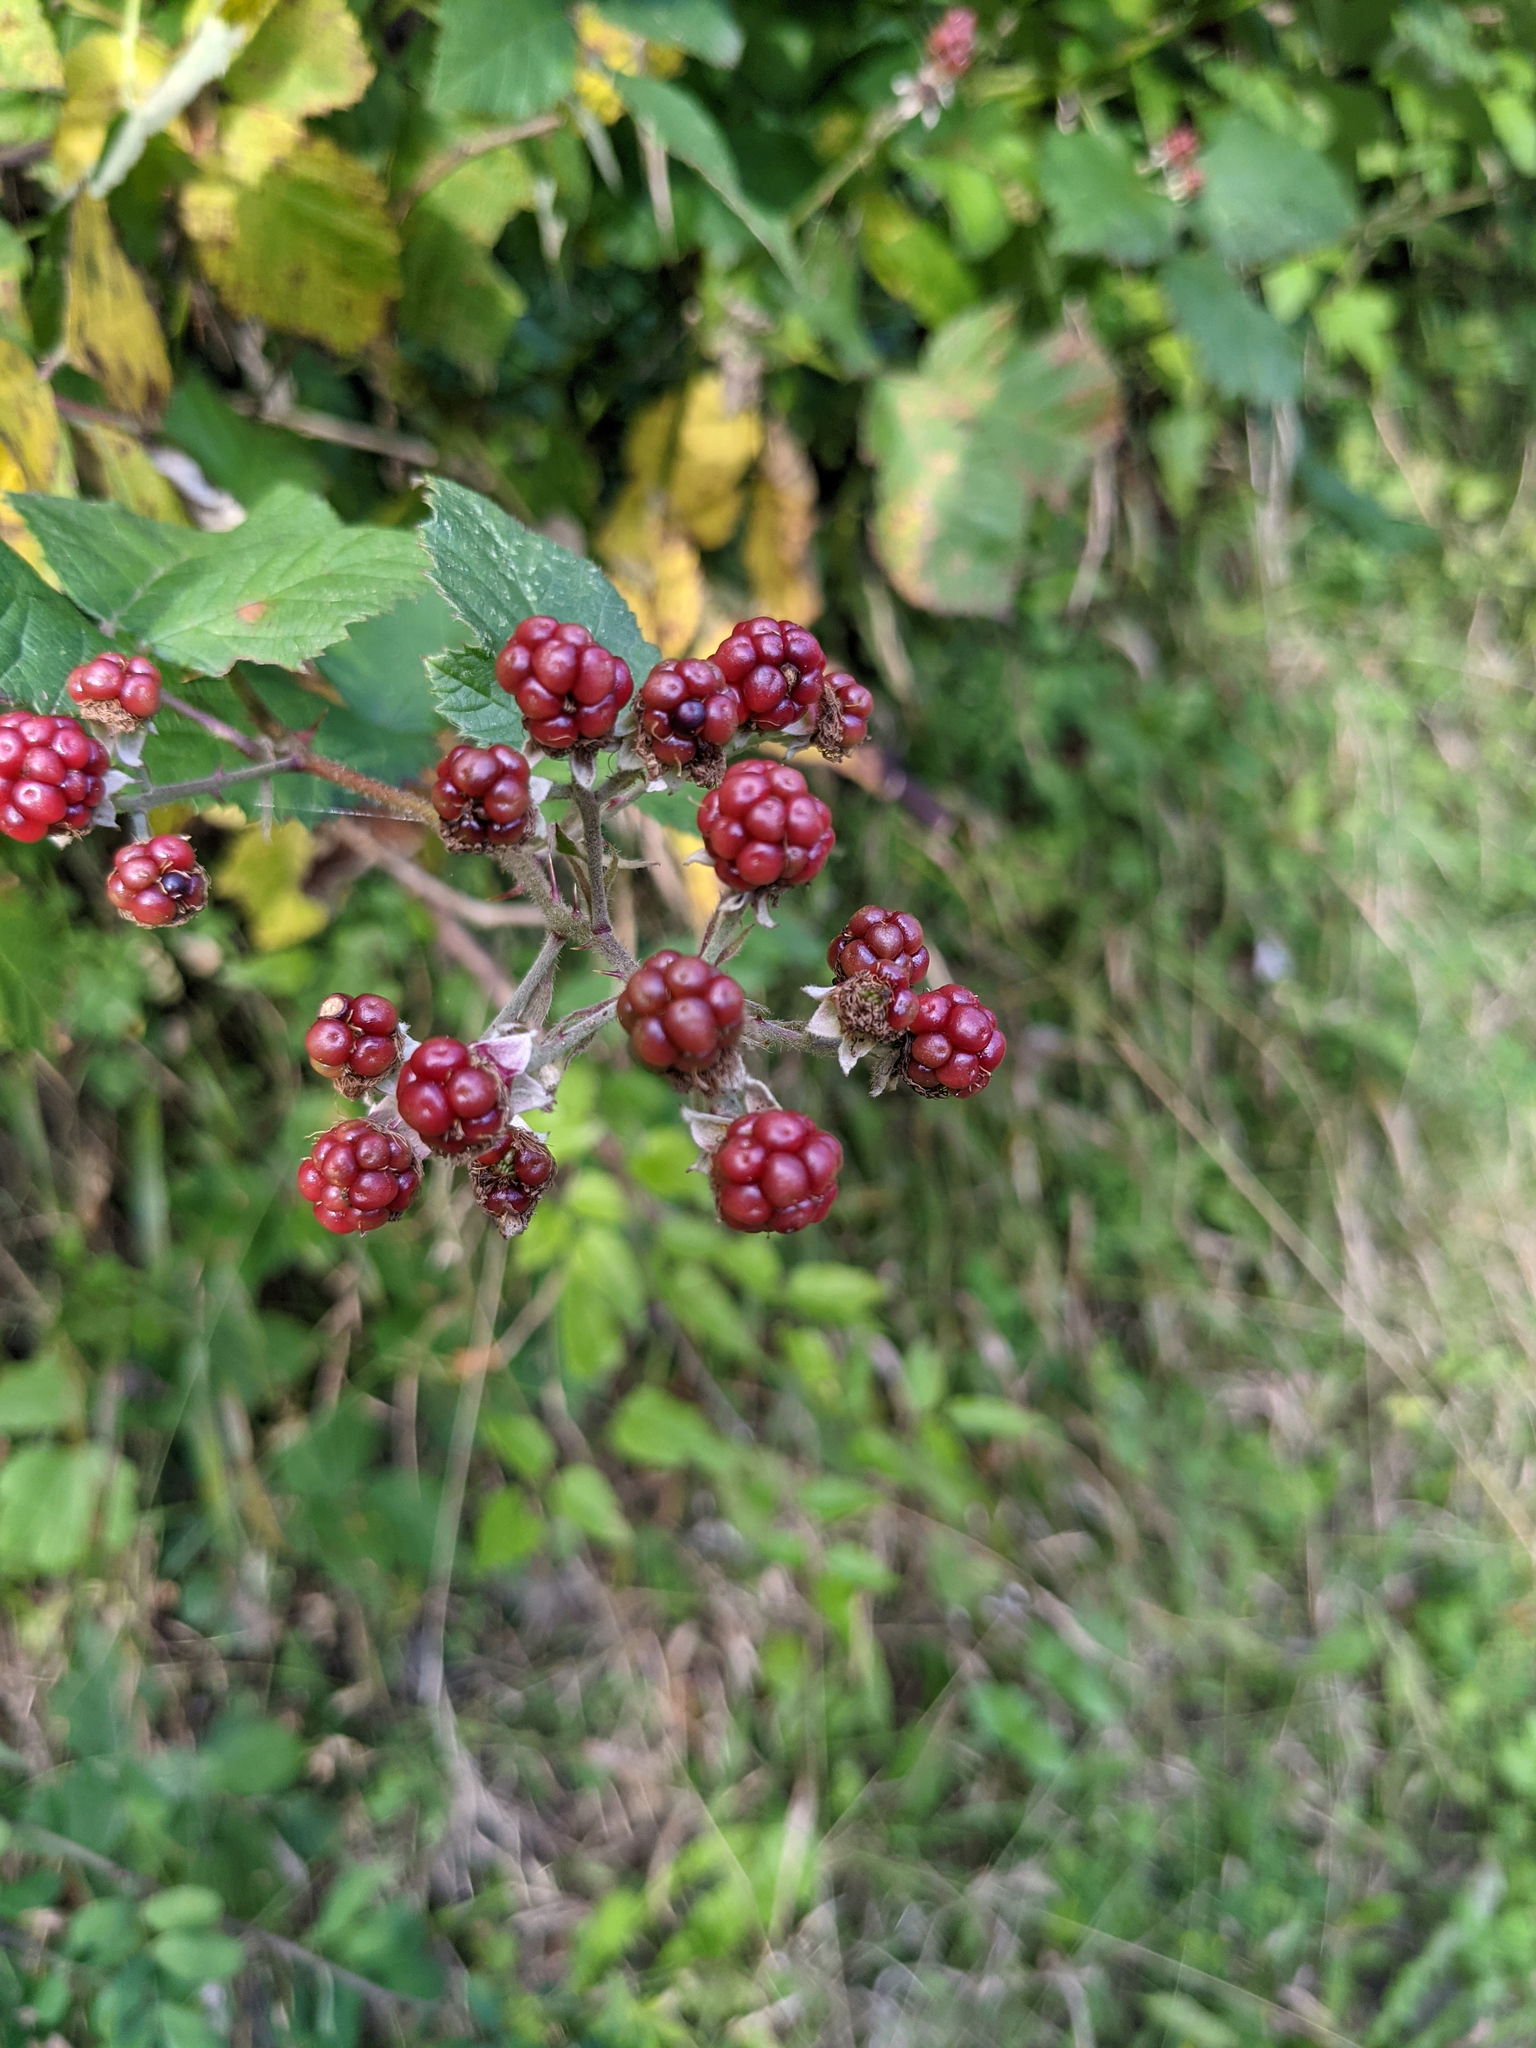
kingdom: Plantae
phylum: Tracheophyta
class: Magnoliopsida
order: Rosales
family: Rosaceae
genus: Rubus
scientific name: Rubus
